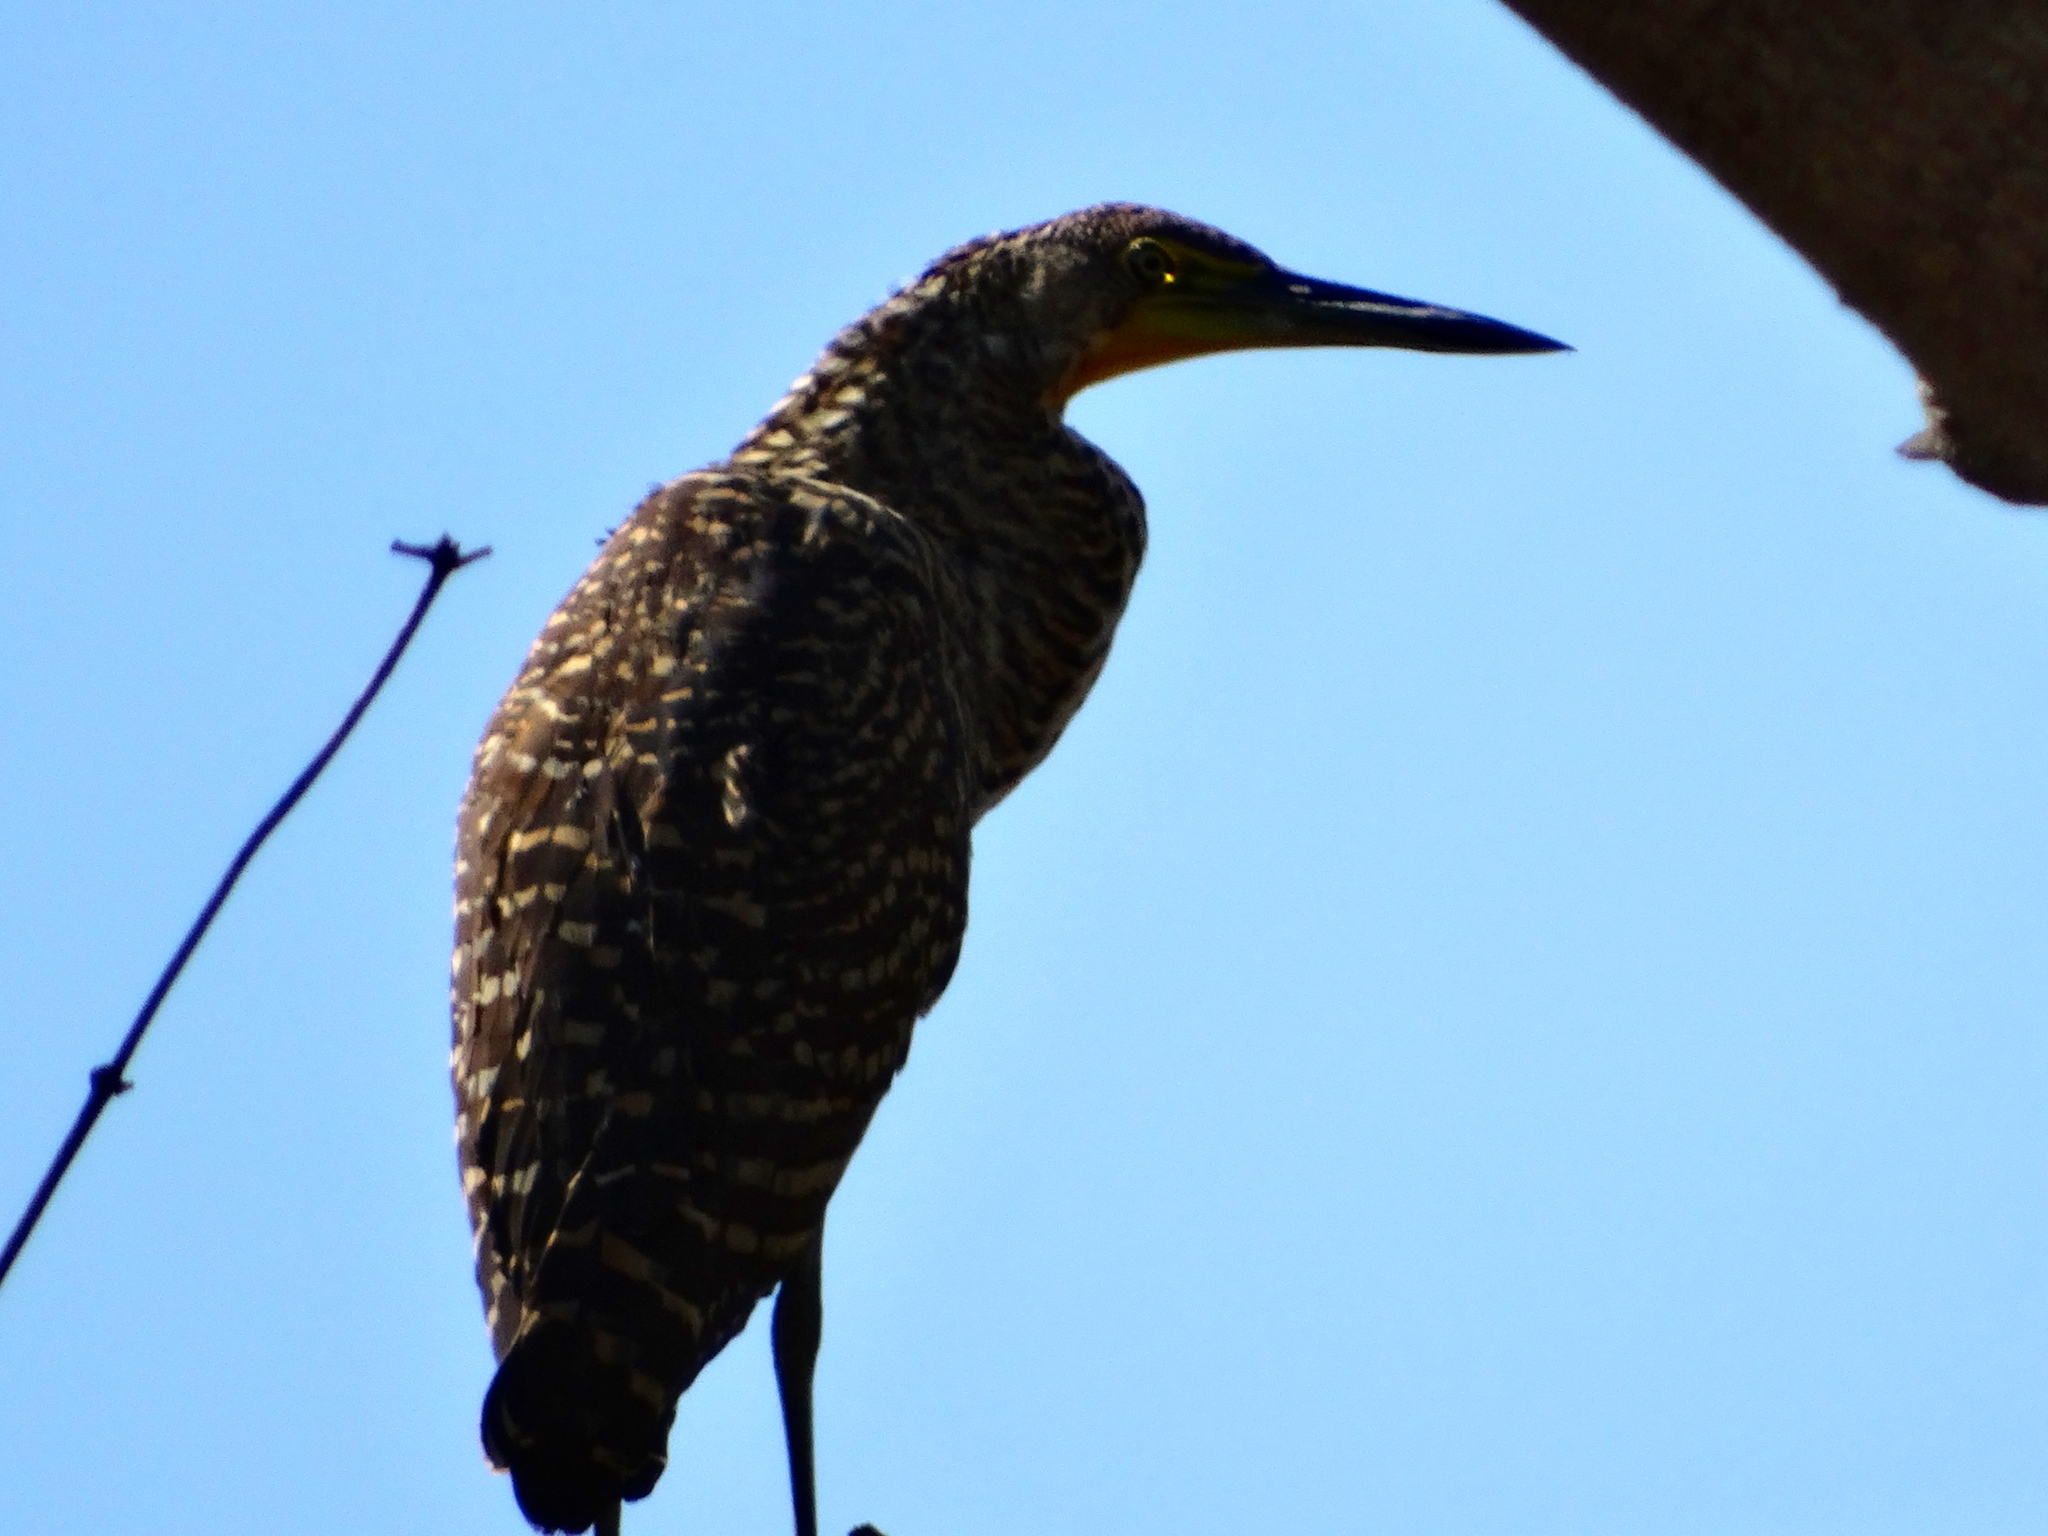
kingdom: Animalia
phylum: Chordata
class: Aves
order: Pelecaniformes
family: Ardeidae
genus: Tigrisoma
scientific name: Tigrisoma mexicanum
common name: Bare-throated tiger-heron
